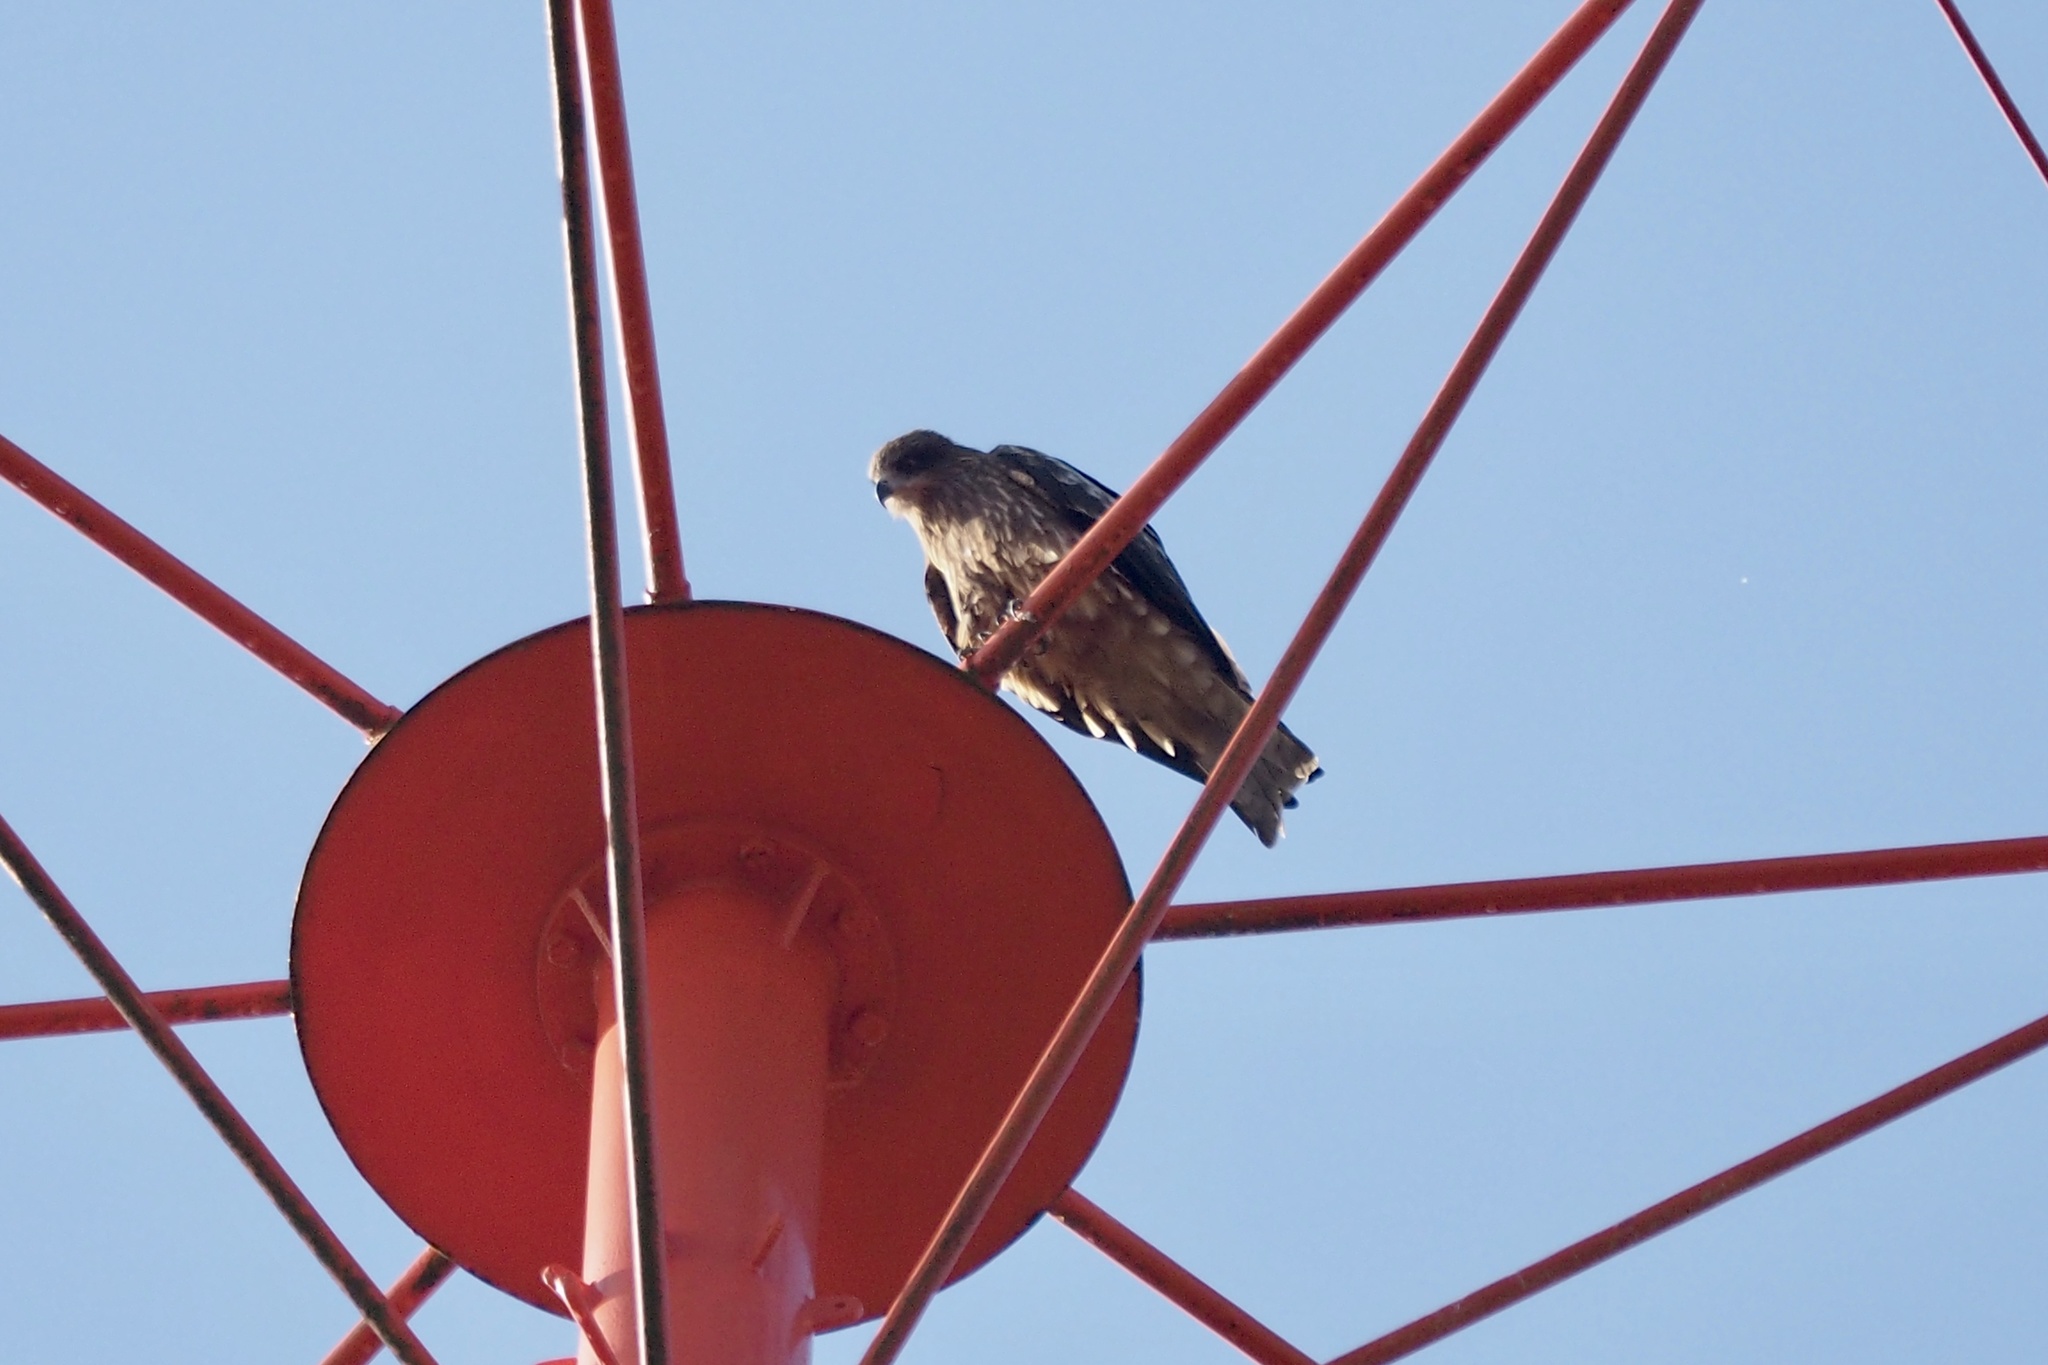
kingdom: Animalia
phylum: Chordata
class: Aves
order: Accipitriformes
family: Accipitridae
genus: Milvus
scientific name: Milvus migrans
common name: Black kite
